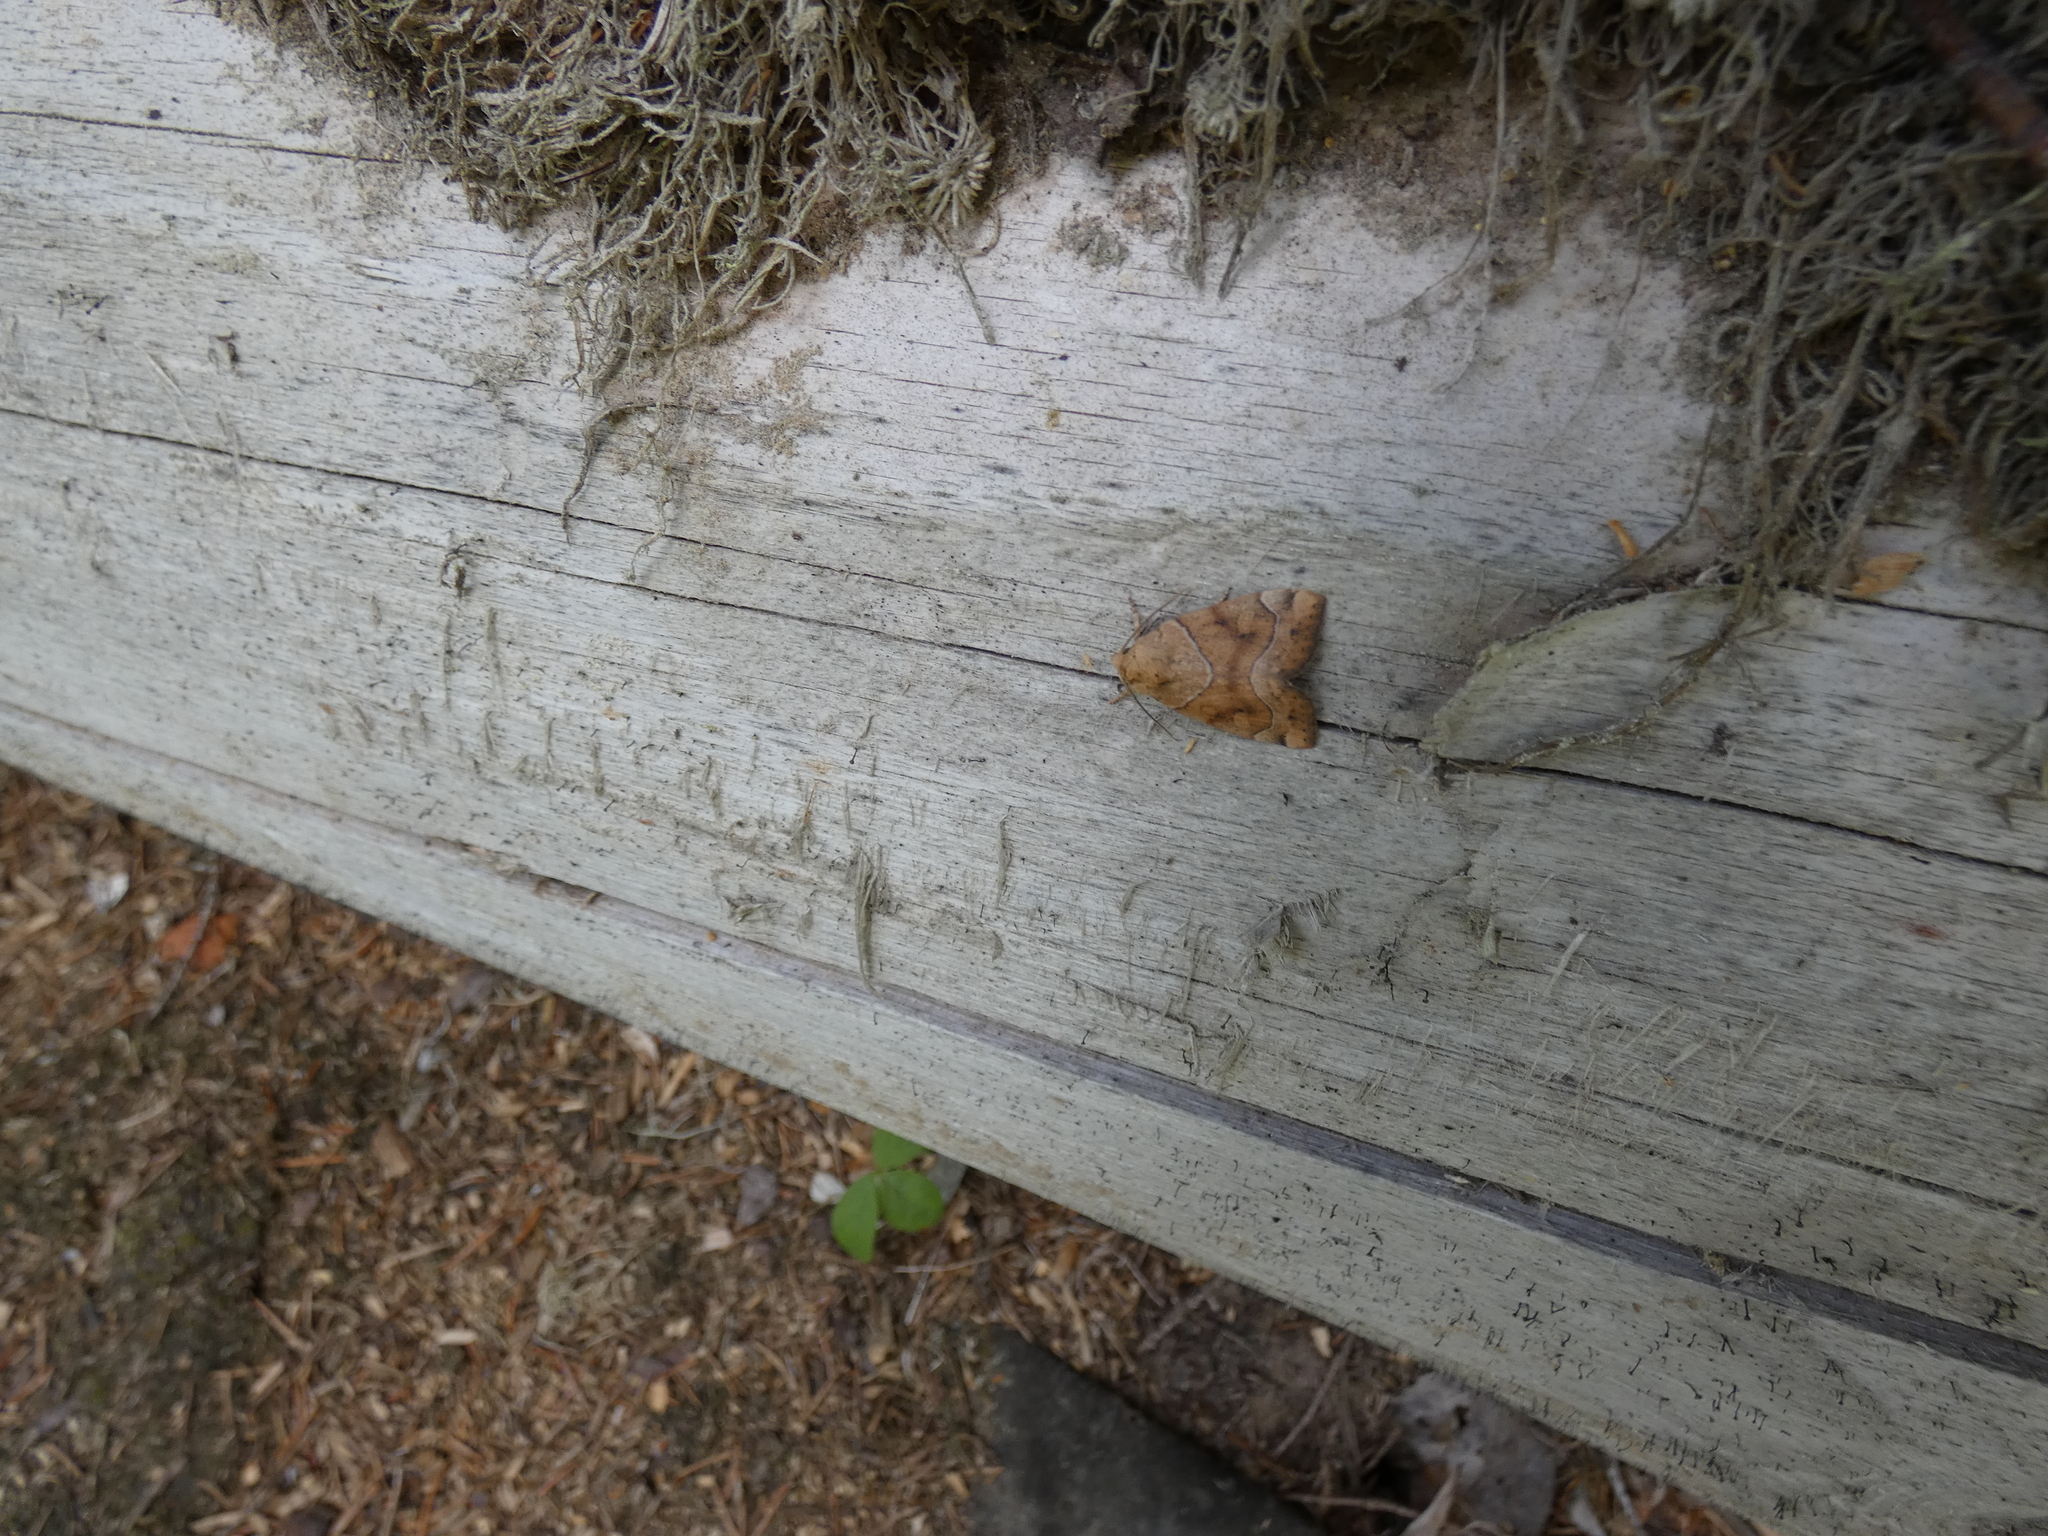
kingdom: Animalia
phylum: Arthropoda
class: Insecta
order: Lepidoptera
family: Noctuidae
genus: Cosmia
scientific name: Cosmia trapezina
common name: Dun-bar
